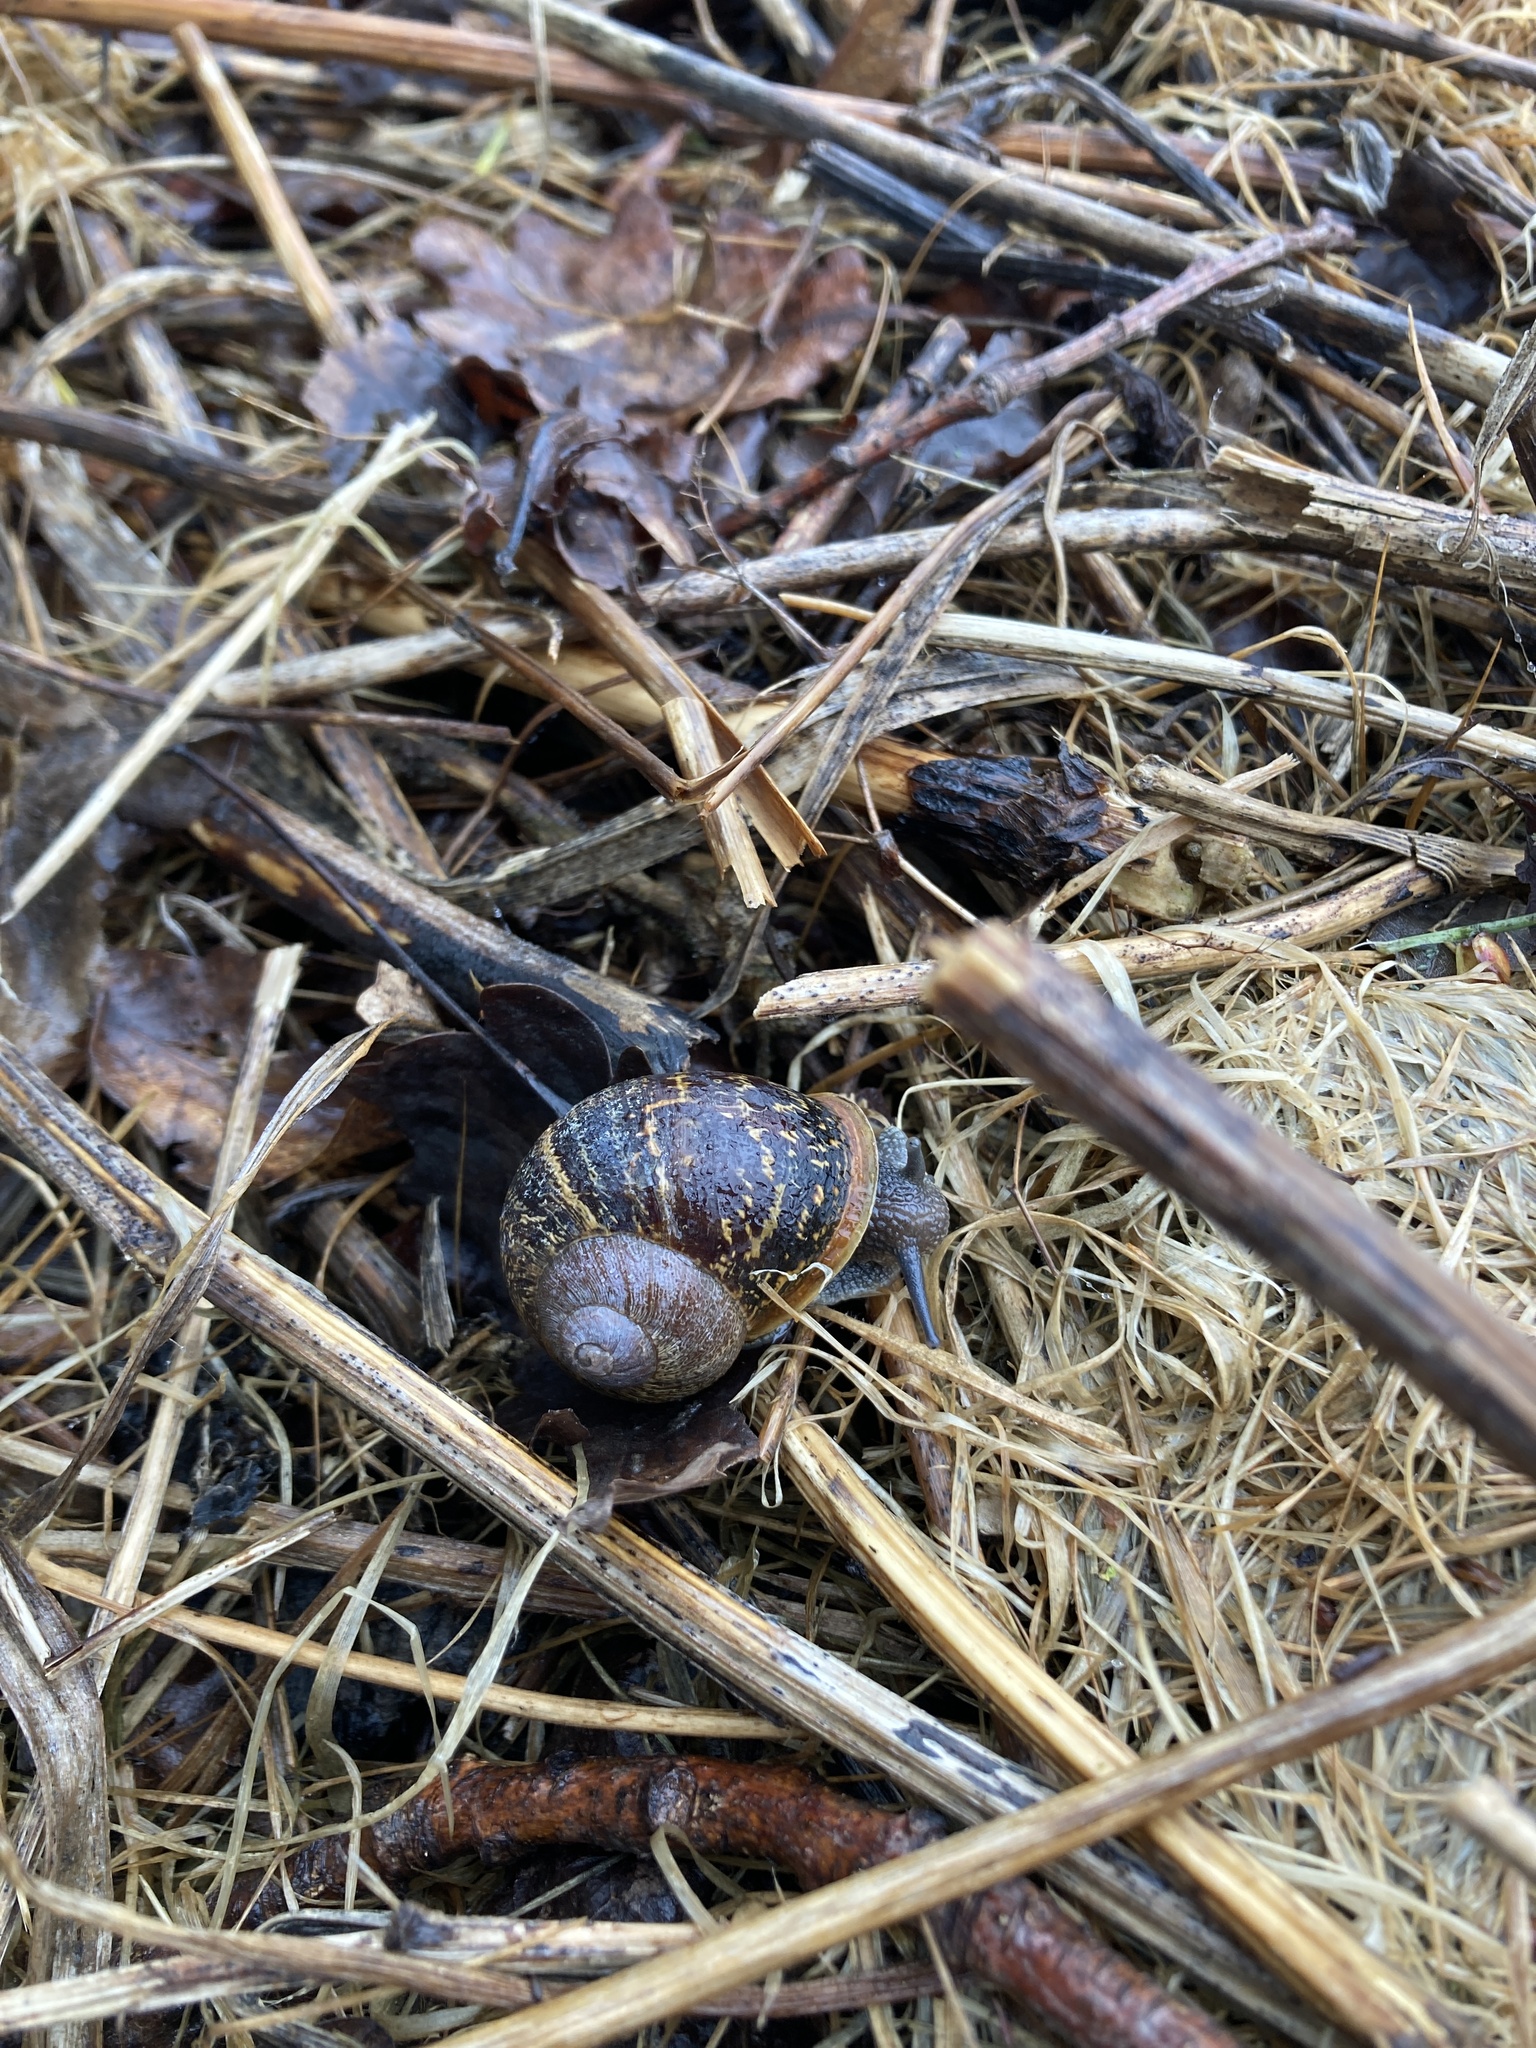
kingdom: Animalia
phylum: Mollusca
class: Gastropoda
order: Stylommatophora
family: Helicidae
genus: Cornu
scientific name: Cornu aspersum
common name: Brown garden snail
